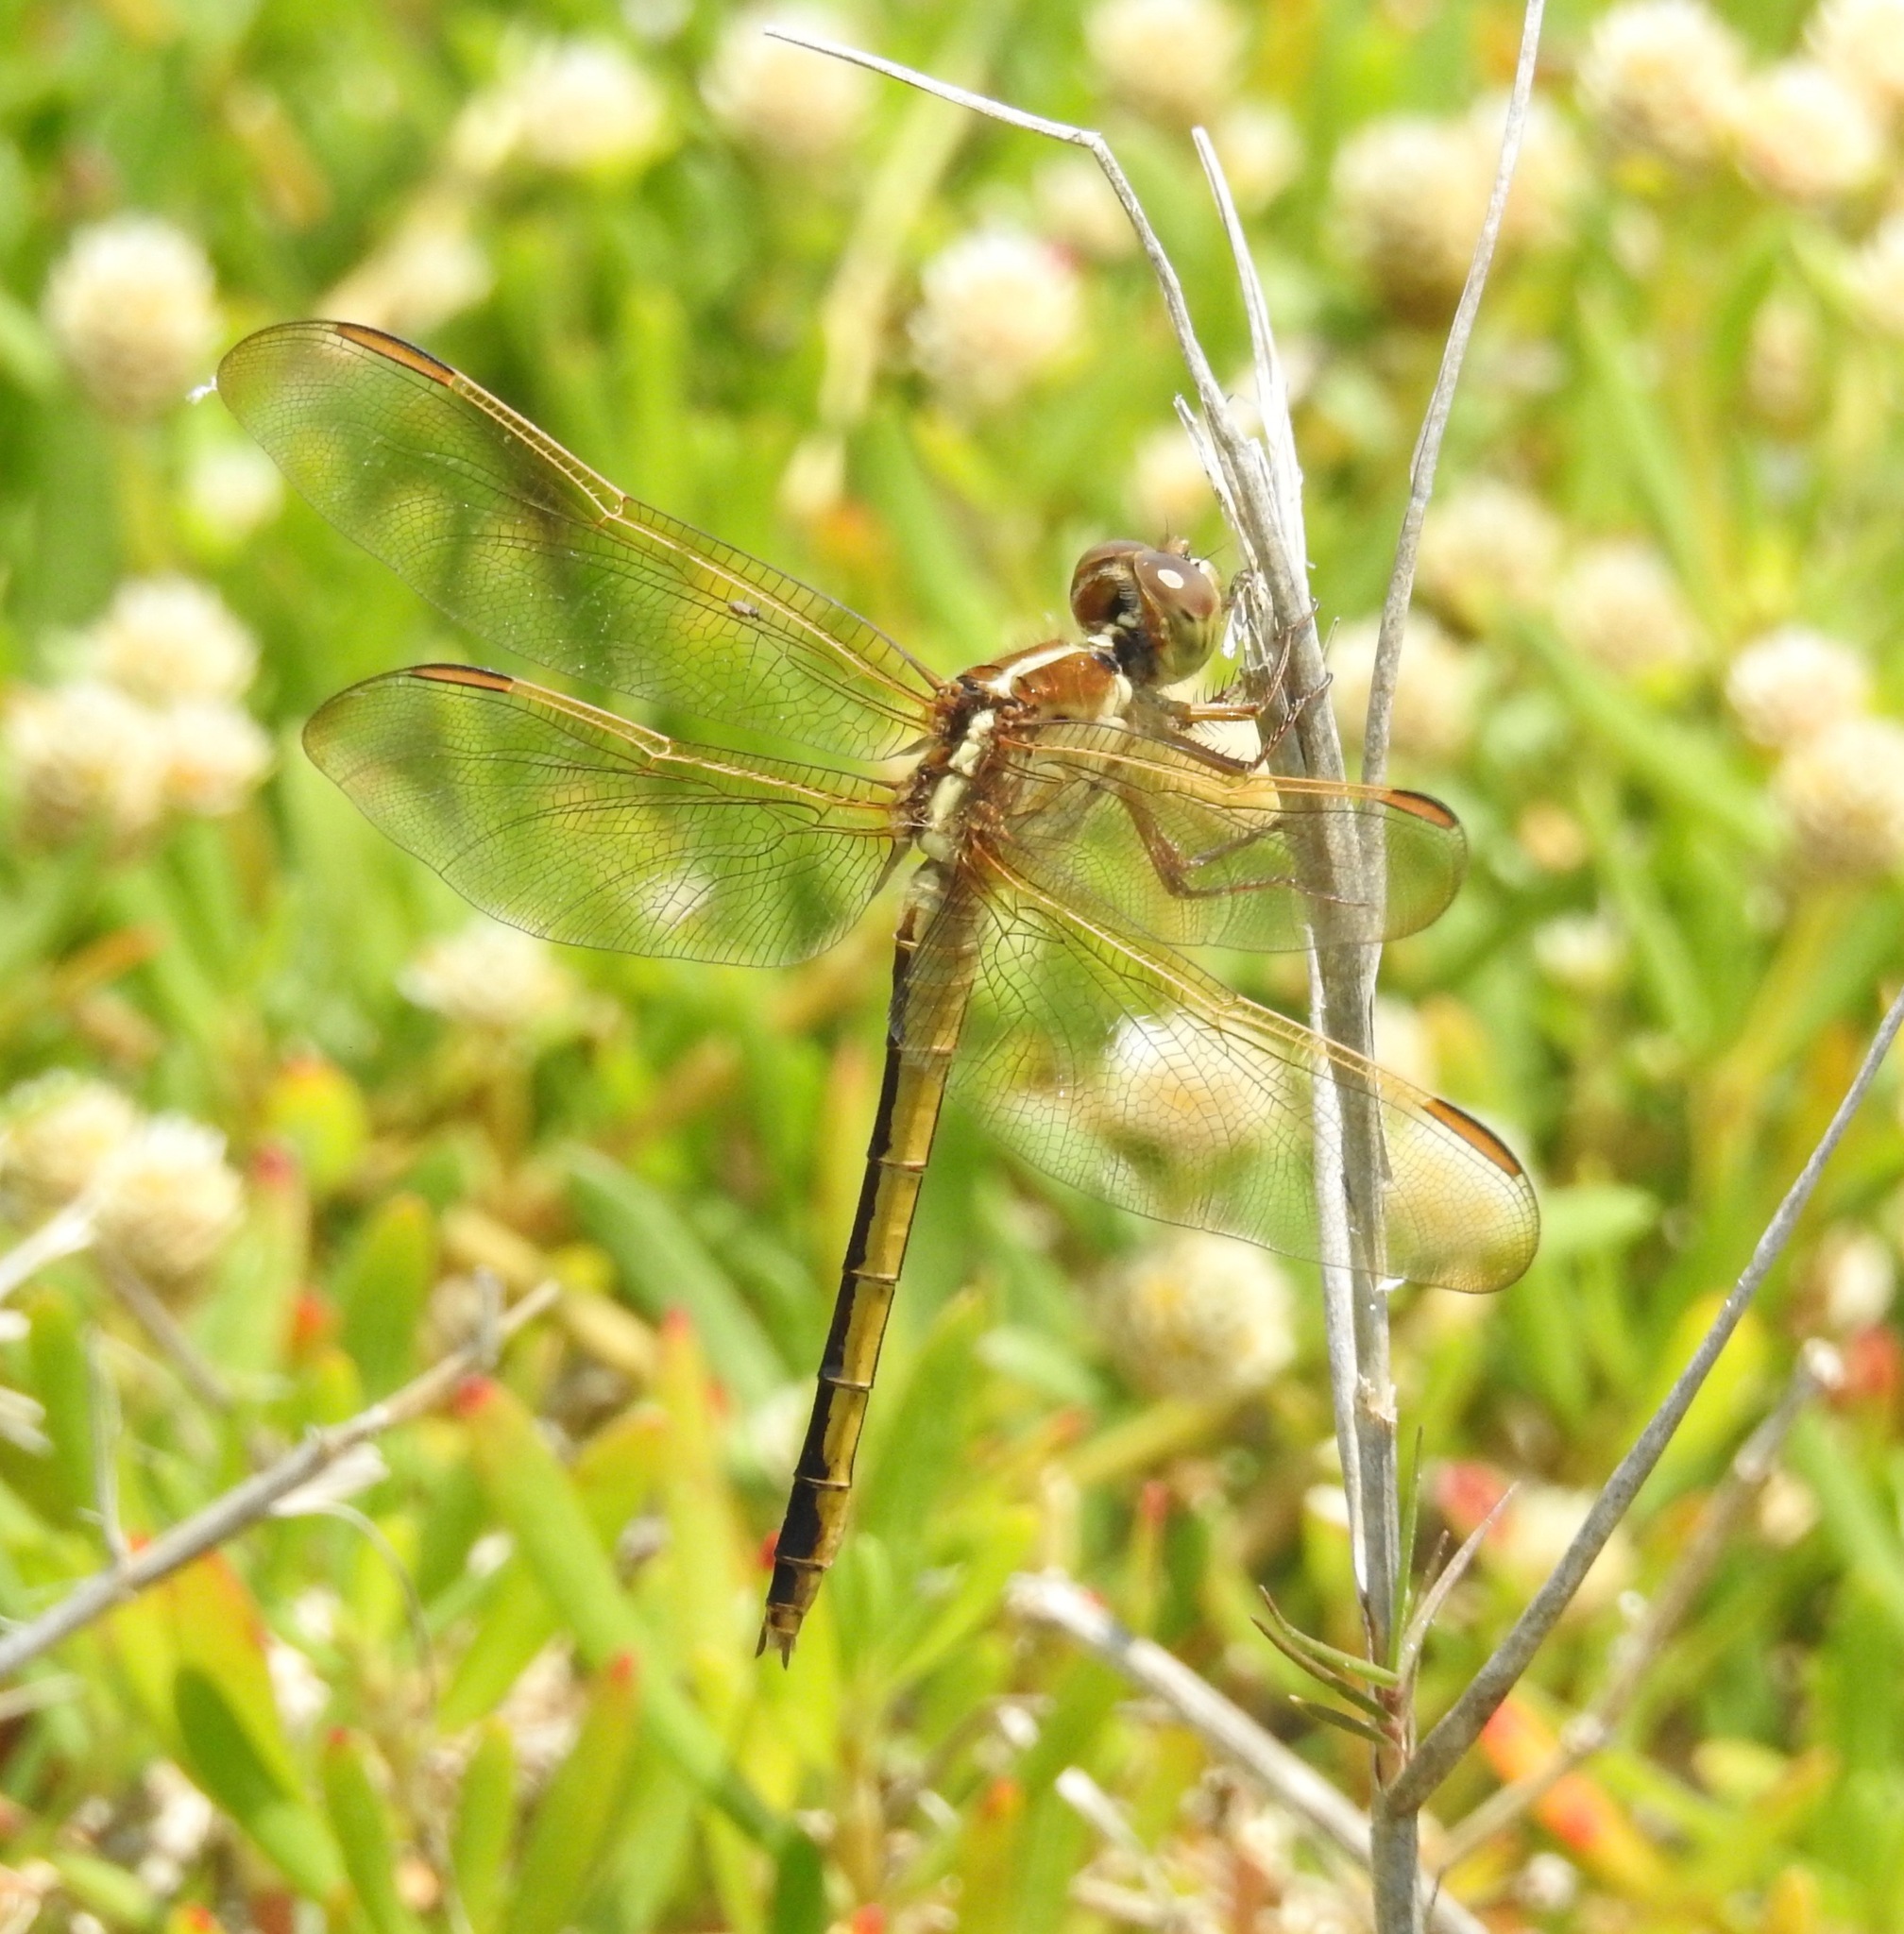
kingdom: Animalia
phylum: Arthropoda
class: Insecta
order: Odonata
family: Libellulidae
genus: Libellula
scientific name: Libellula needhami
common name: Needham's skimmer
